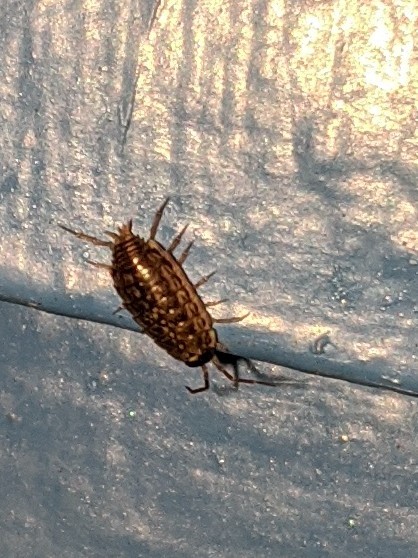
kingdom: Animalia
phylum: Arthropoda
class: Malacostraca
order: Isopoda
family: Philosciidae
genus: Philoscia
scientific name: Philoscia muscorum
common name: Common striped woodlouse
